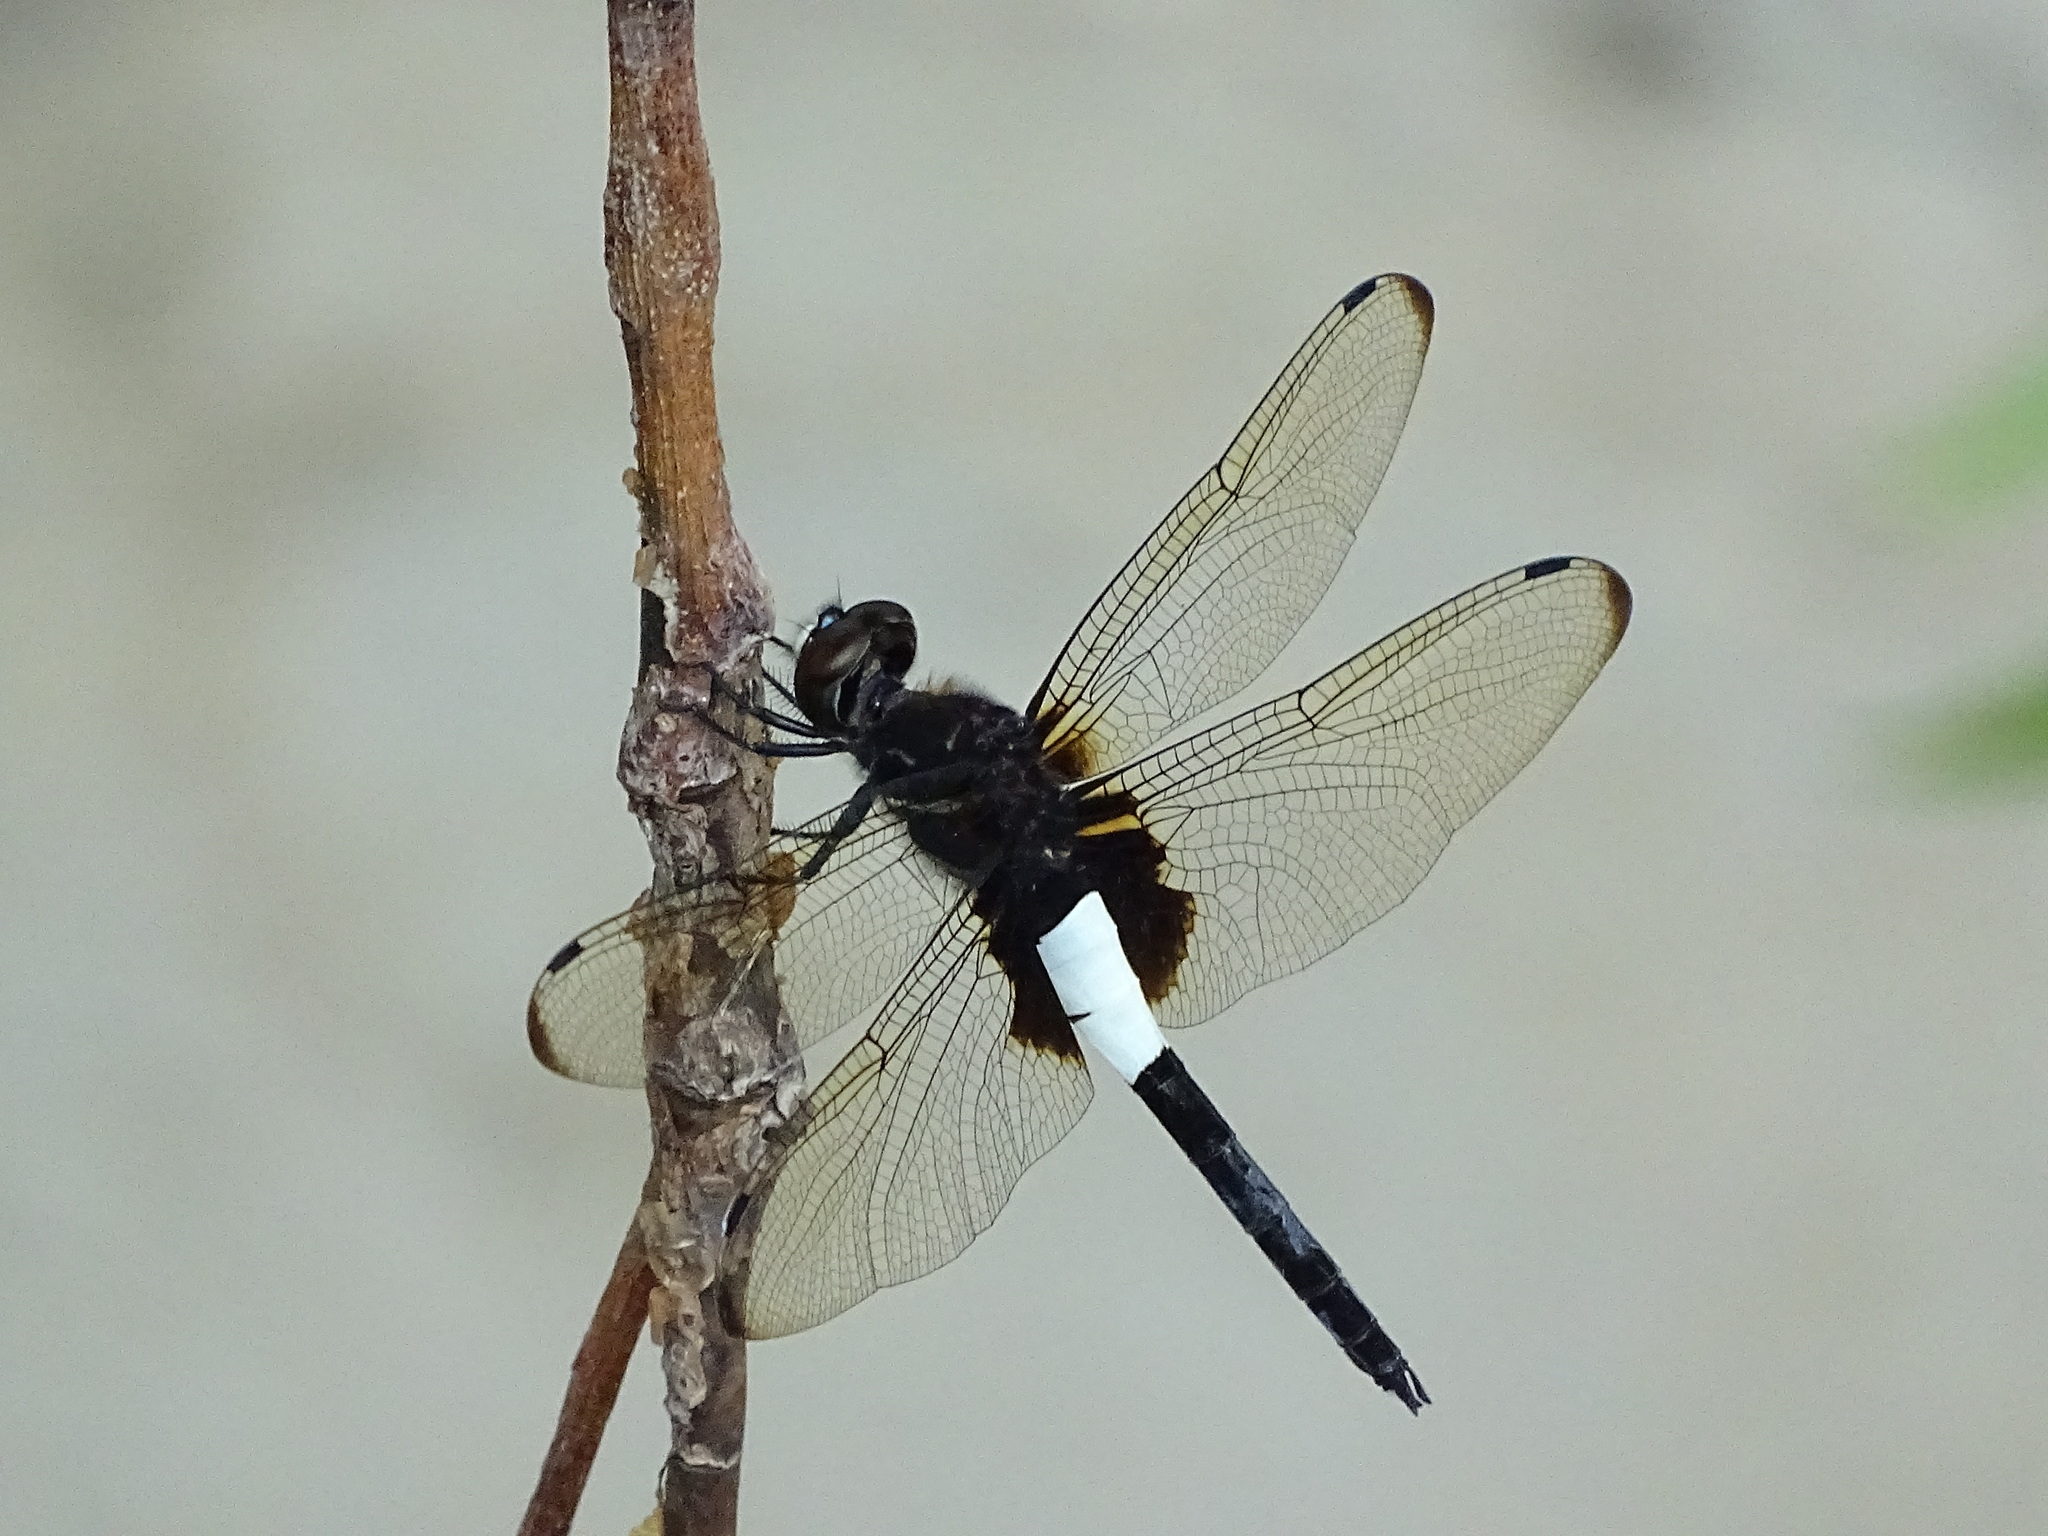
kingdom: Animalia
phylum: Arthropoda
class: Insecta
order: Odonata
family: Libellulidae
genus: Pseudothemis
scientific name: Pseudothemis zonata
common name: Pied skimmer
